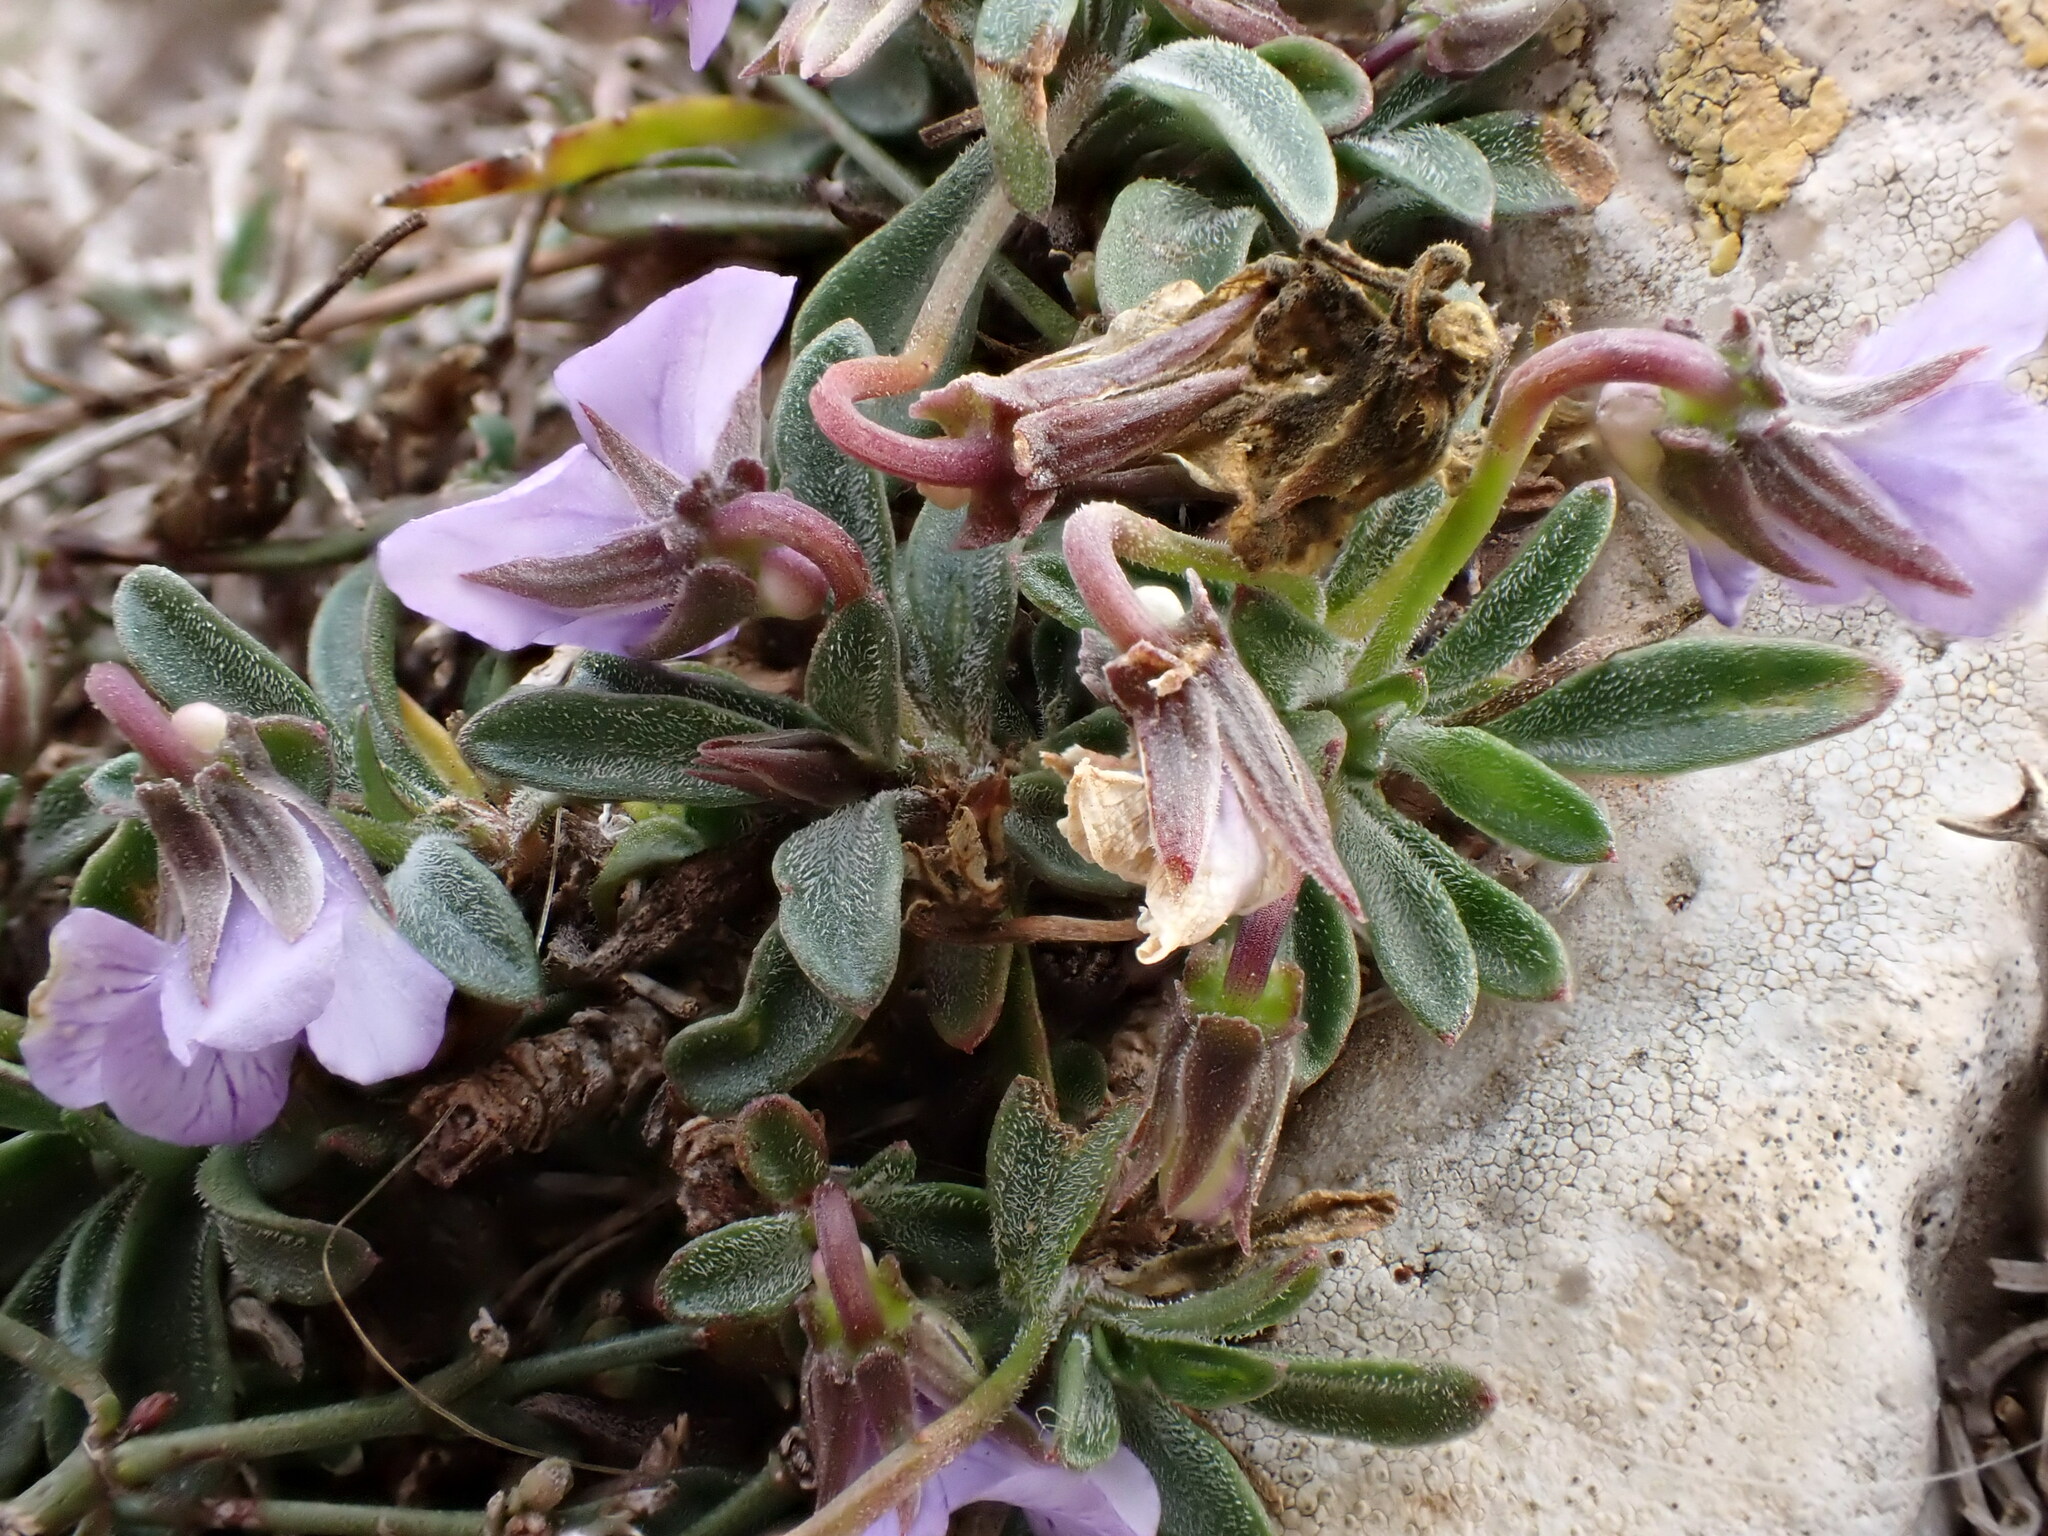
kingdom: Plantae
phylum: Tracheophyta
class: Magnoliopsida
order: Malpighiales
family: Violaceae
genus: Viola
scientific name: Viola arborescens
